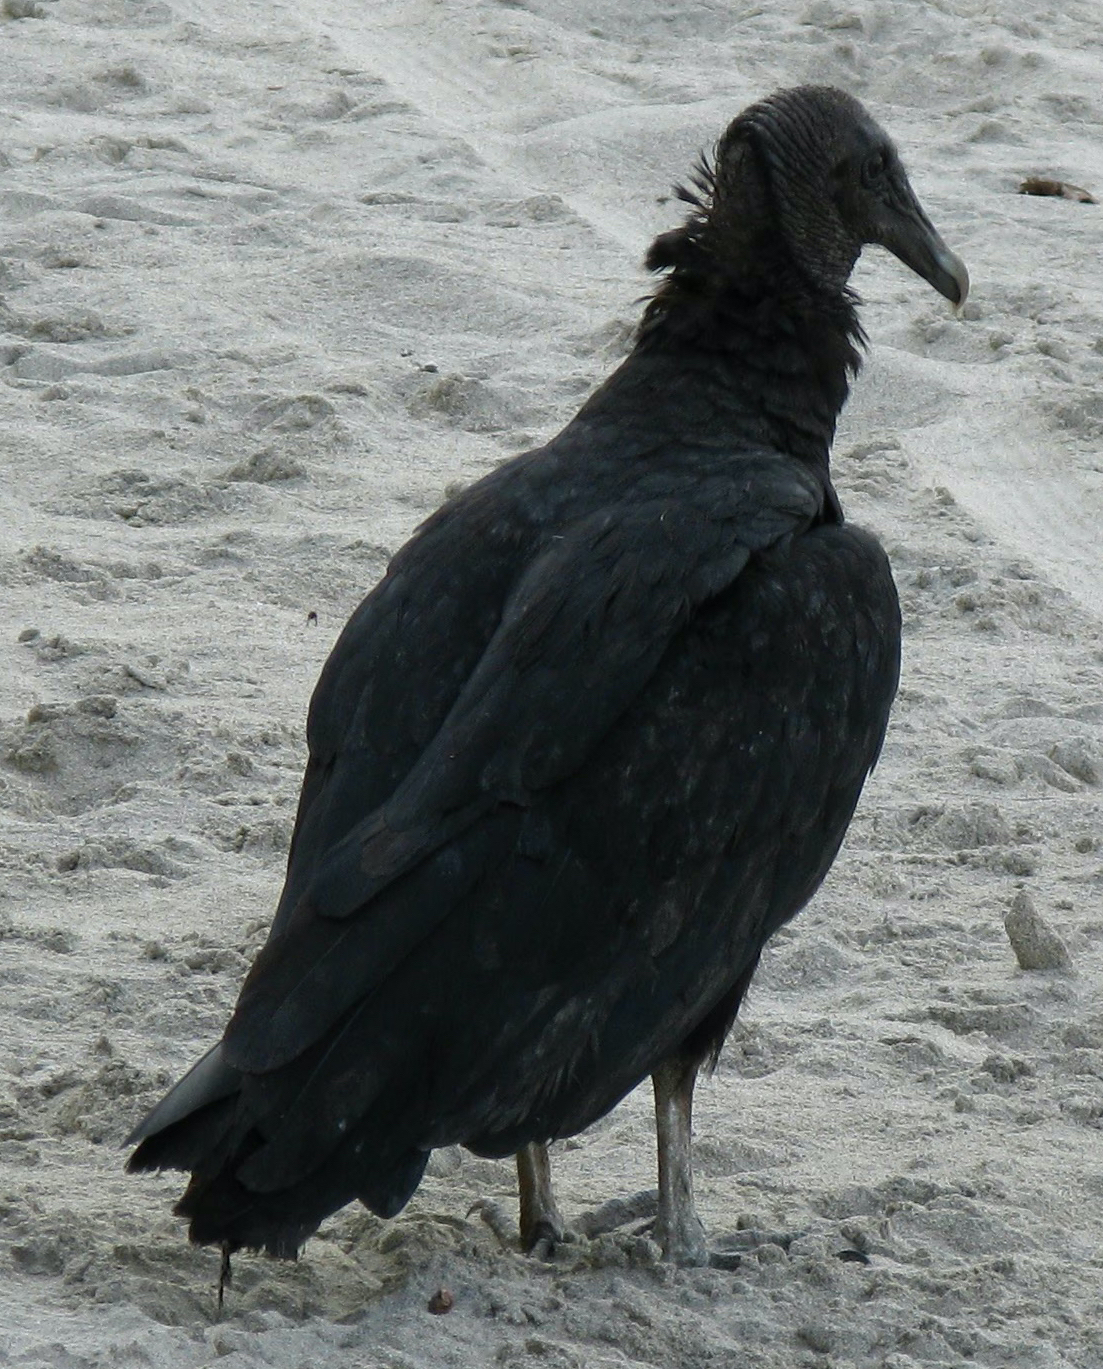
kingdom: Animalia
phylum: Chordata
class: Aves
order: Accipitriformes
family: Cathartidae
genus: Coragyps
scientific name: Coragyps atratus
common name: Black vulture
